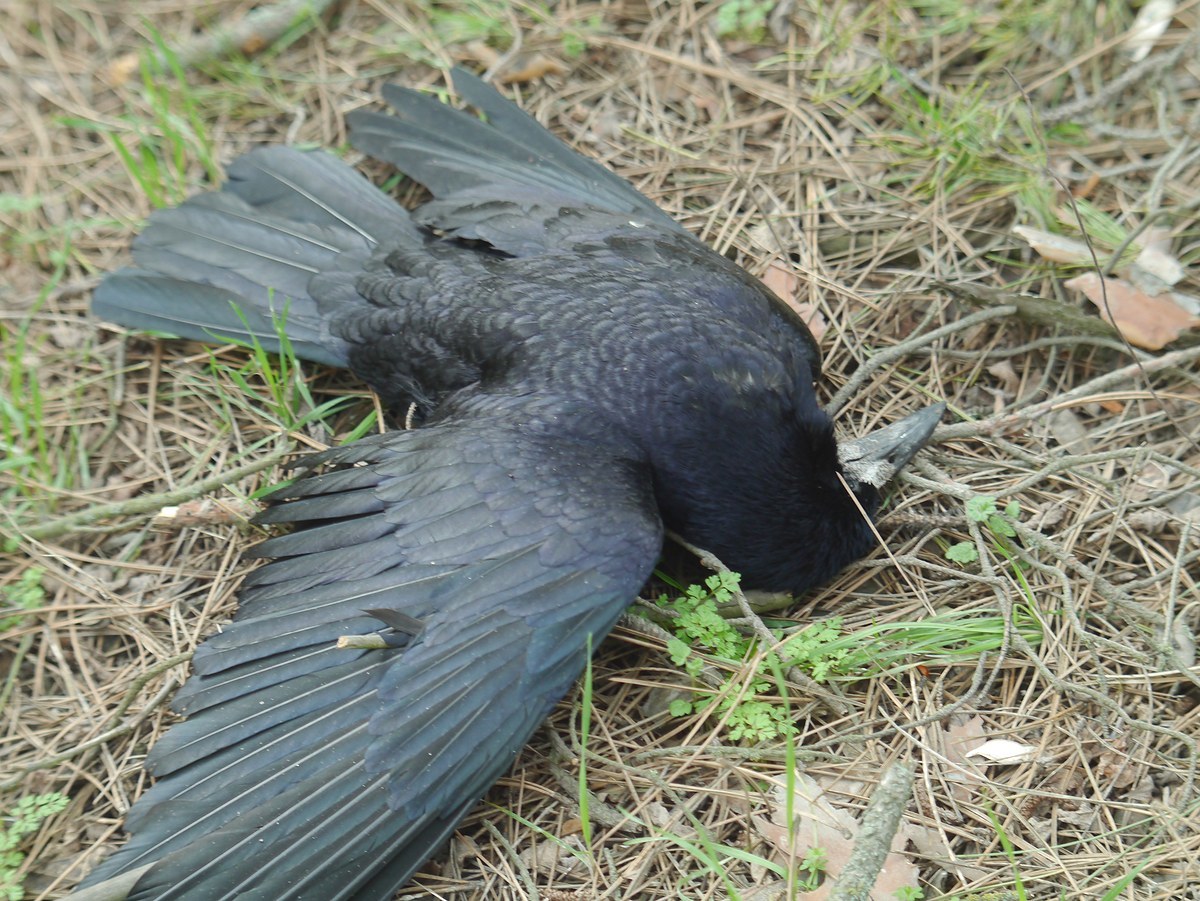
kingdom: Animalia
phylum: Chordata
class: Aves
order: Passeriformes
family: Corvidae
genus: Corvus
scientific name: Corvus frugilegus
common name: Rook
